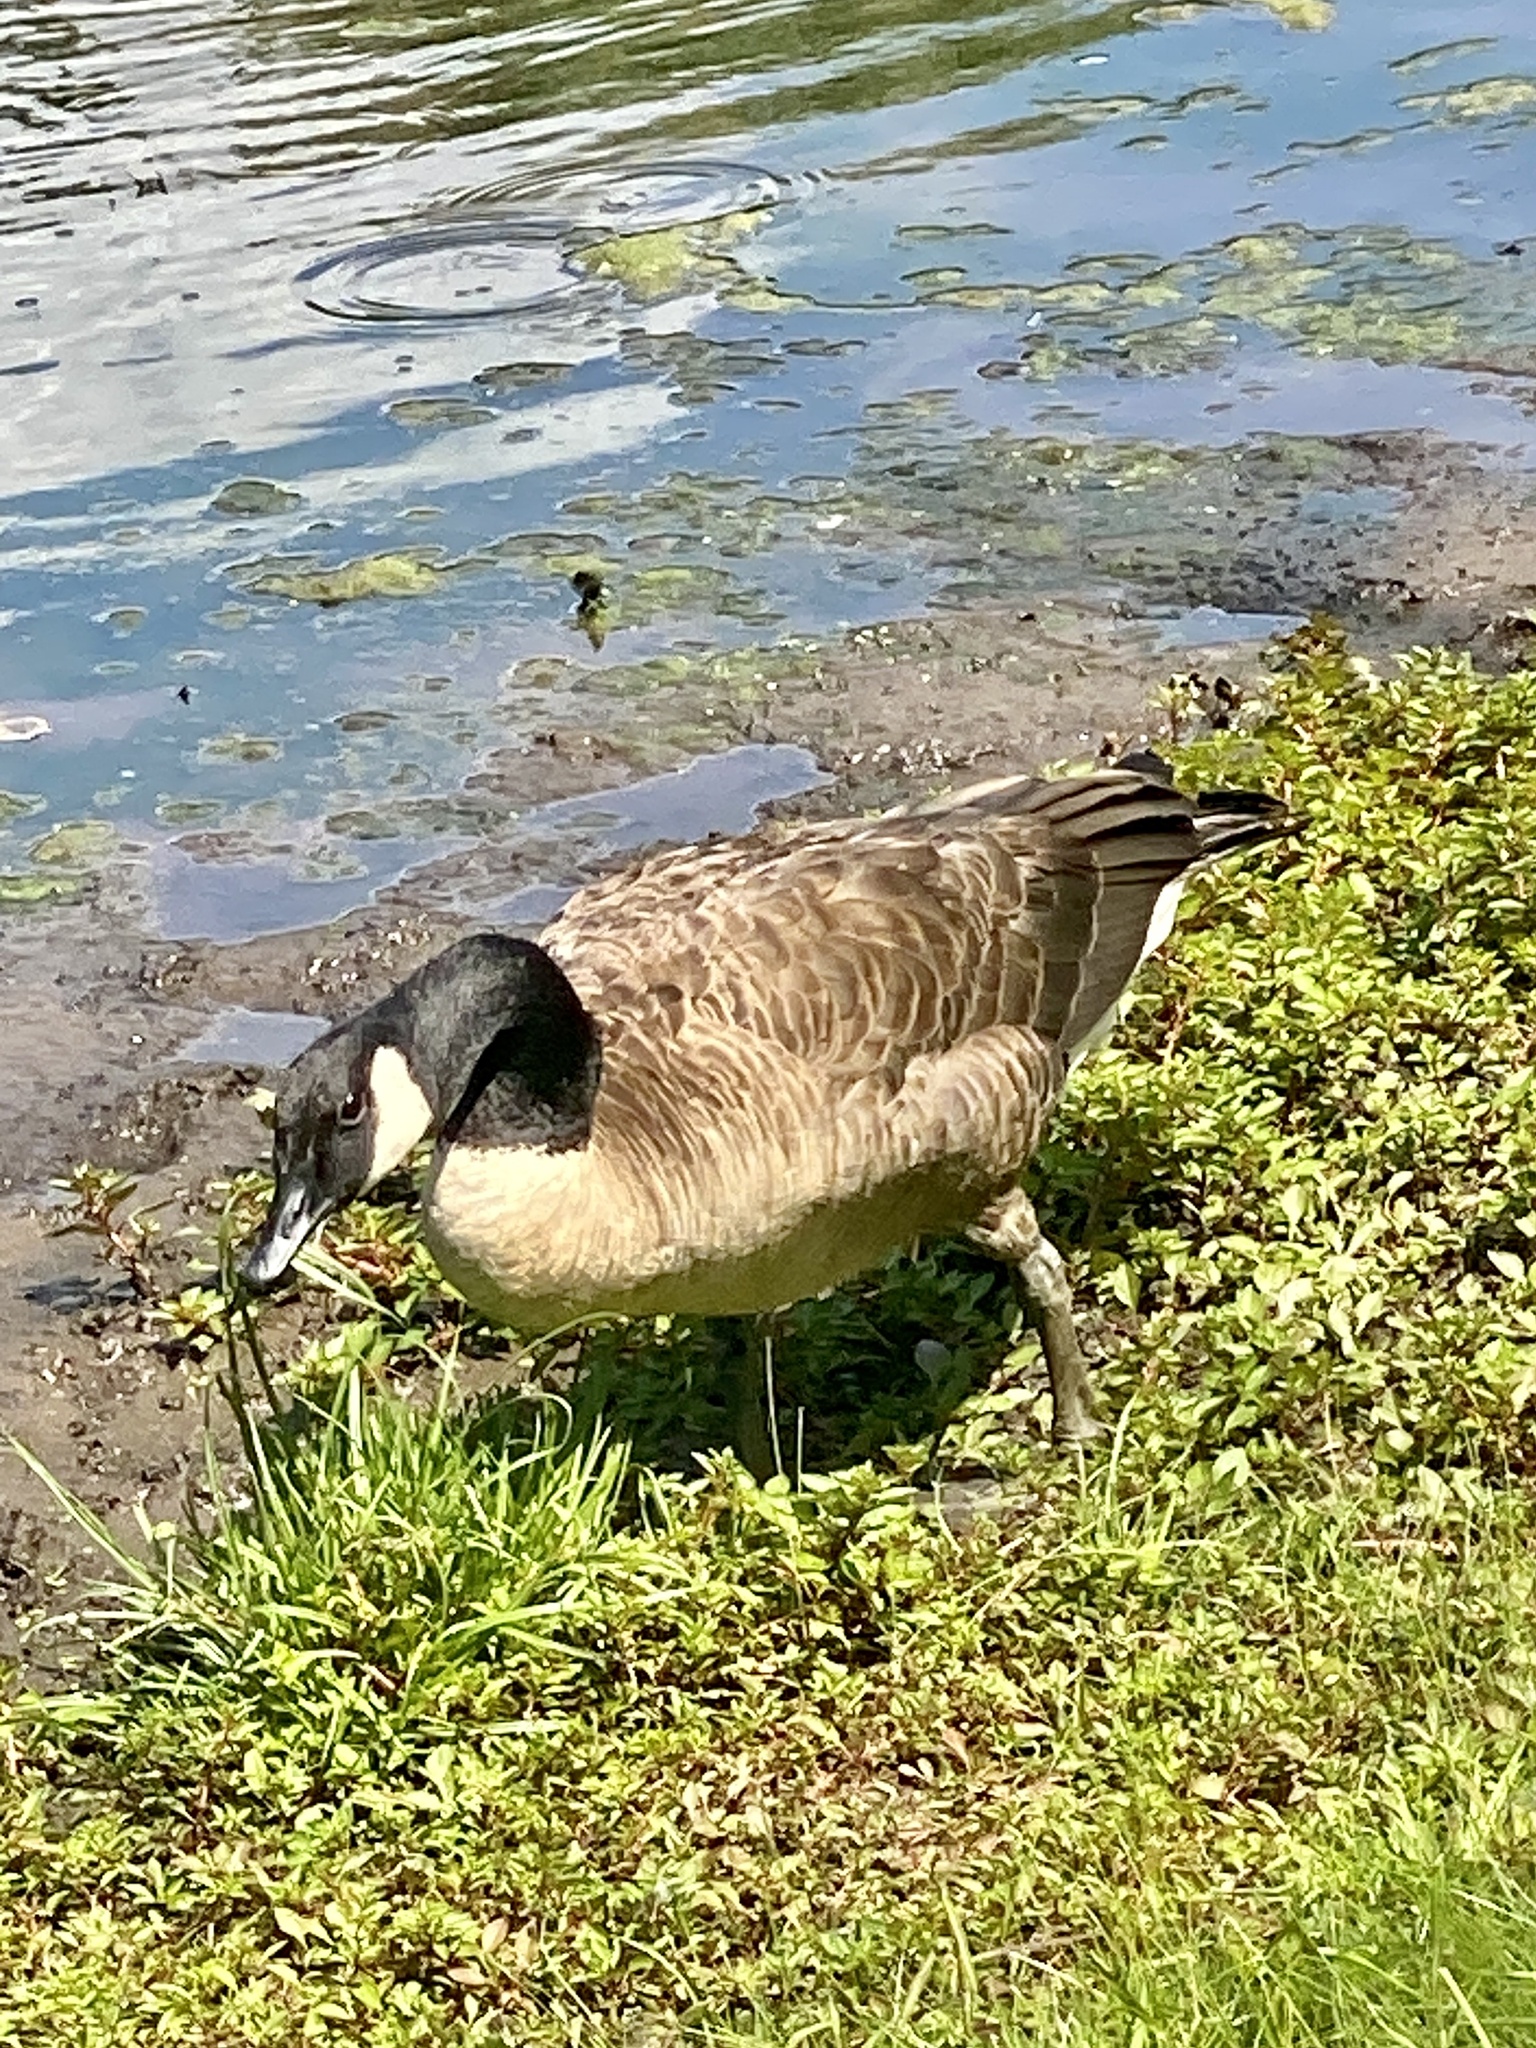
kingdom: Animalia
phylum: Chordata
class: Aves
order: Anseriformes
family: Anatidae
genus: Branta
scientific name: Branta canadensis
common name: Canada goose
